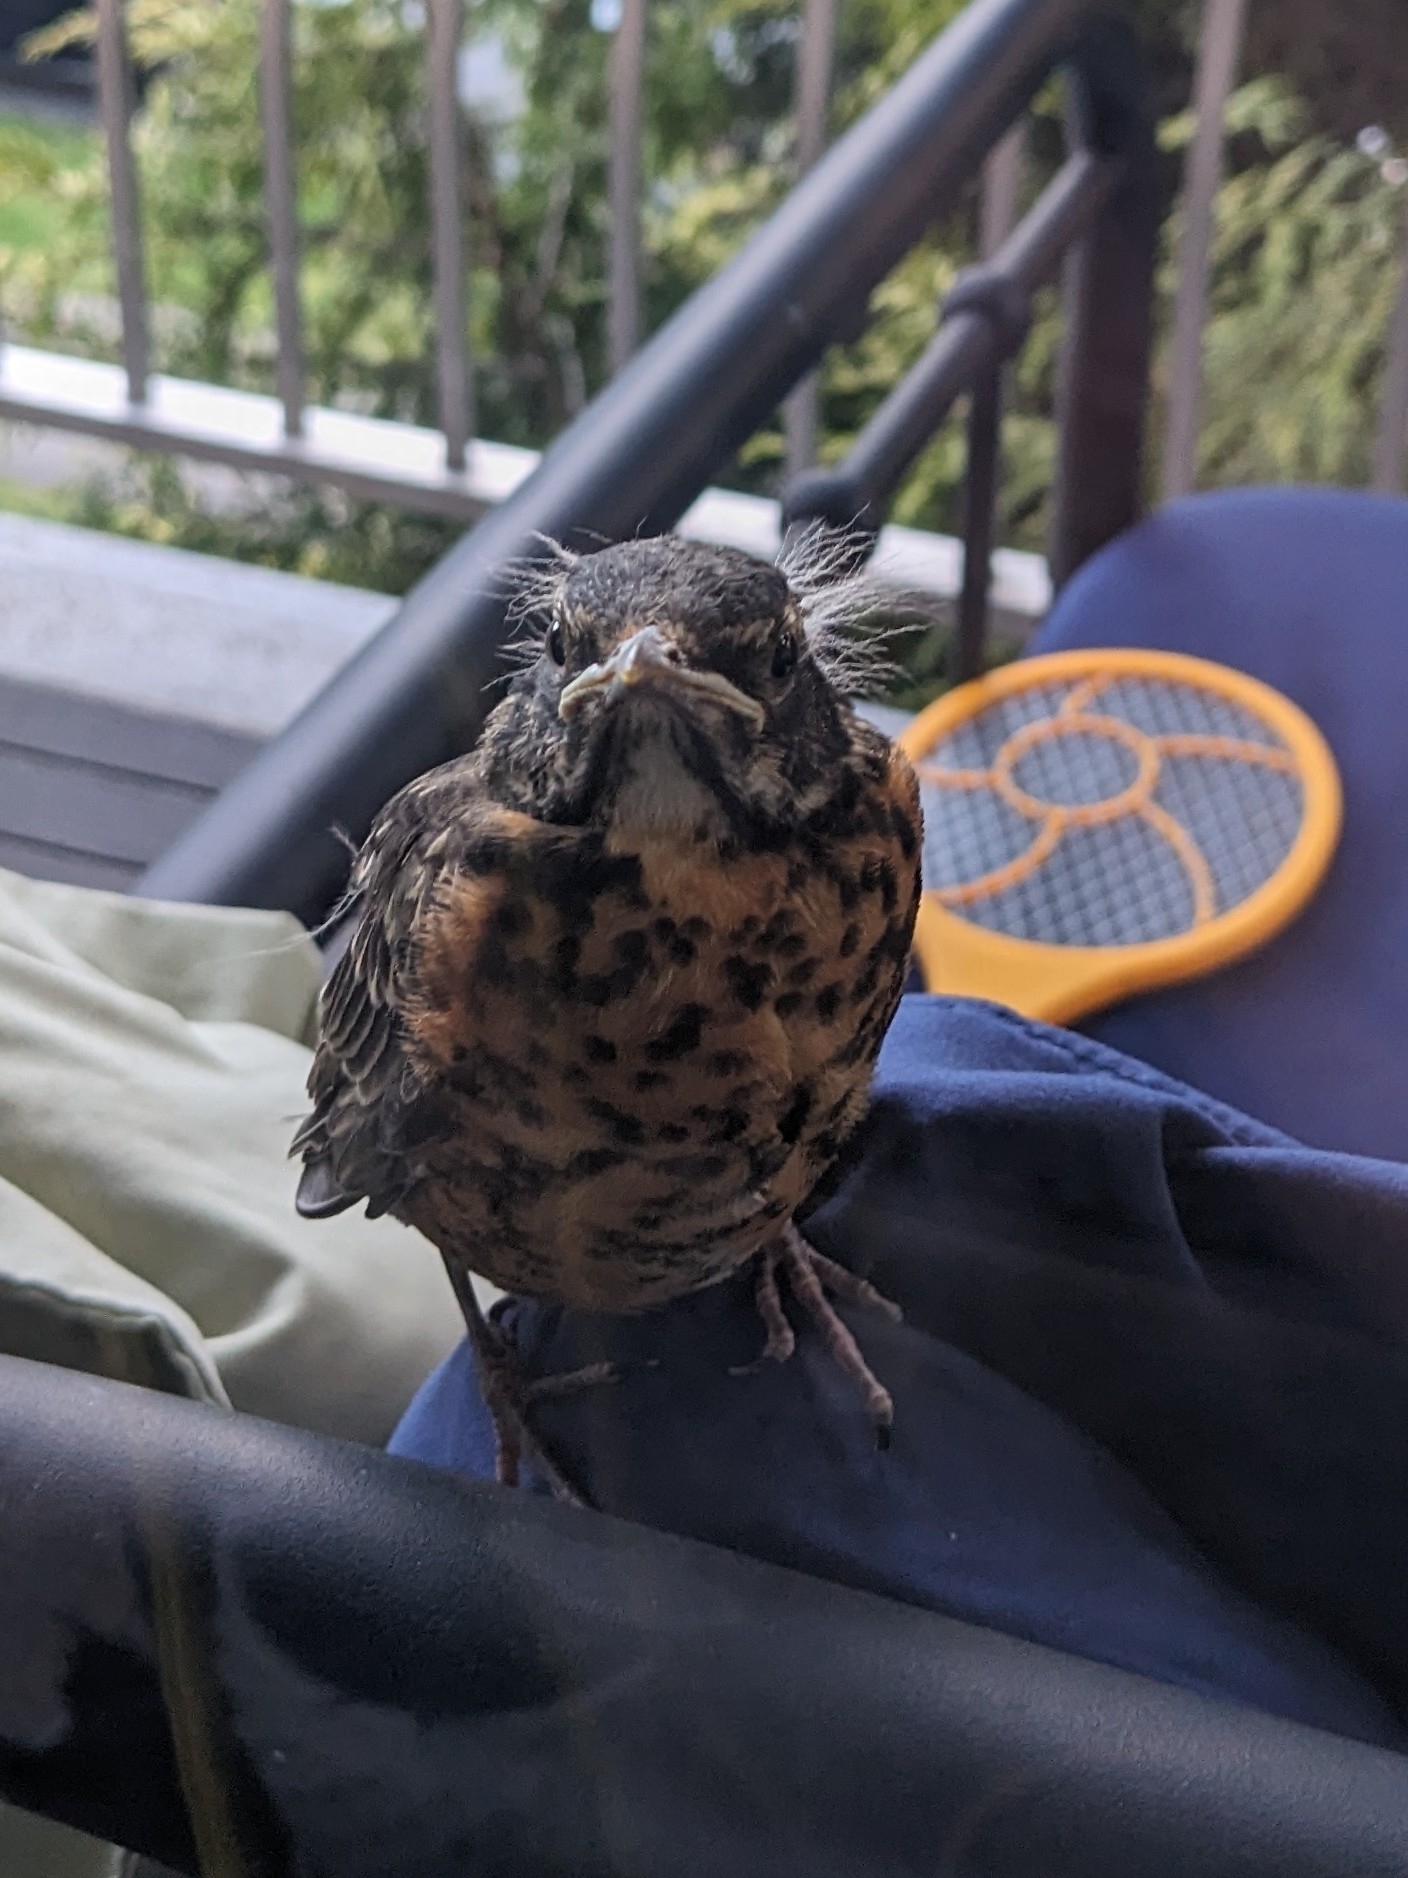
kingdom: Animalia
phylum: Chordata
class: Aves
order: Passeriformes
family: Turdidae
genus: Turdus
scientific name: Turdus migratorius
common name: American robin
